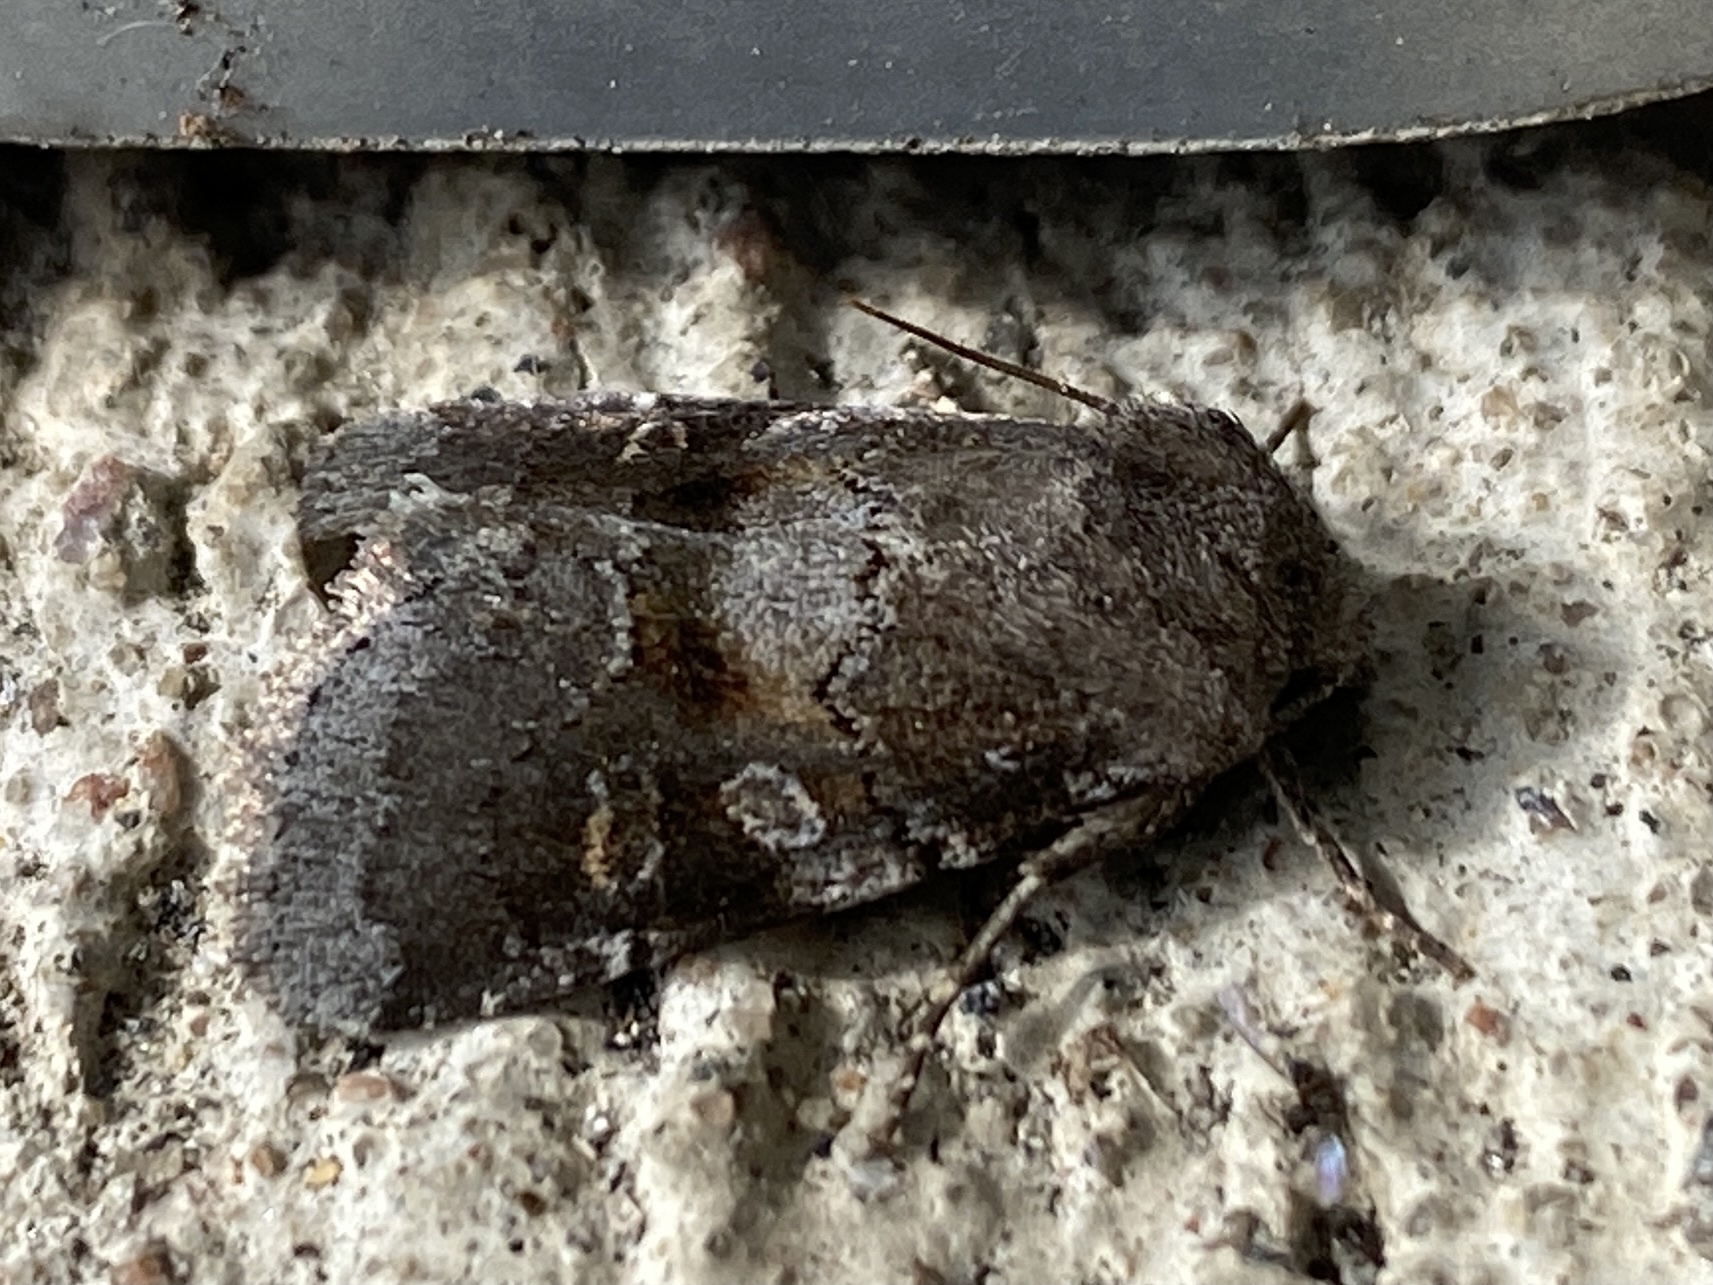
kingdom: Animalia
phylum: Arthropoda
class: Insecta
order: Lepidoptera
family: Noctuidae
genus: Oligia
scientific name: Oligia minuscula
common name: Small brocade
